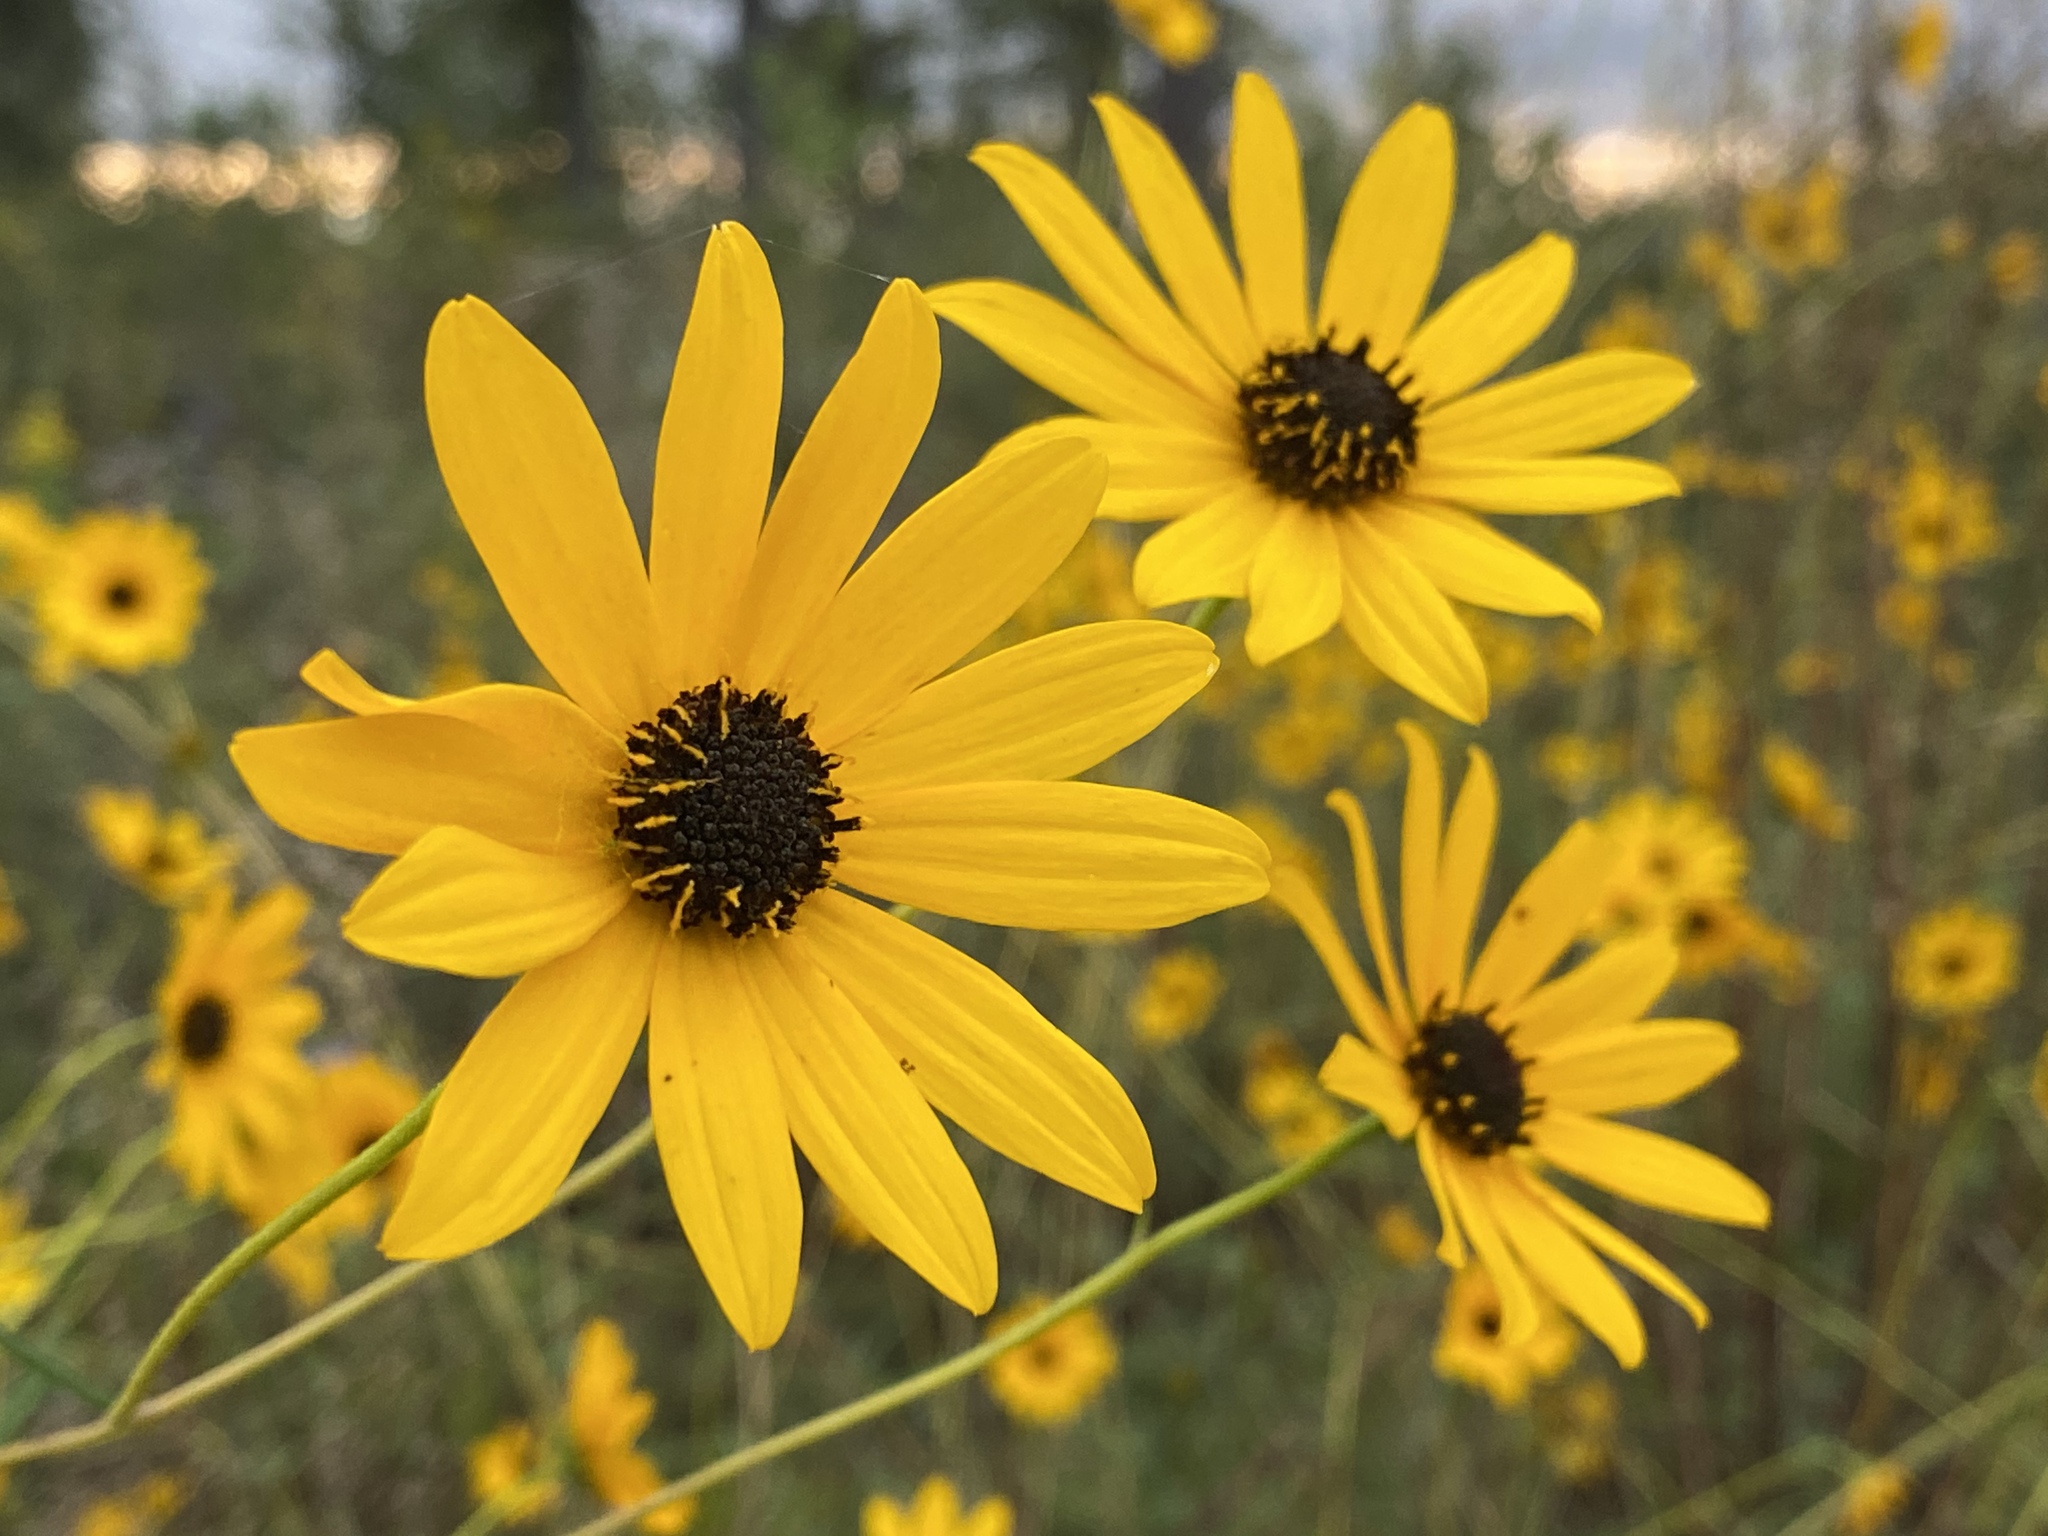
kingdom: Plantae
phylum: Tracheophyta
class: Magnoliopsida
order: Asterales
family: Asteraceae
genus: Helianthus
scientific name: Helianthus angustifolius
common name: Swamp sunflower
